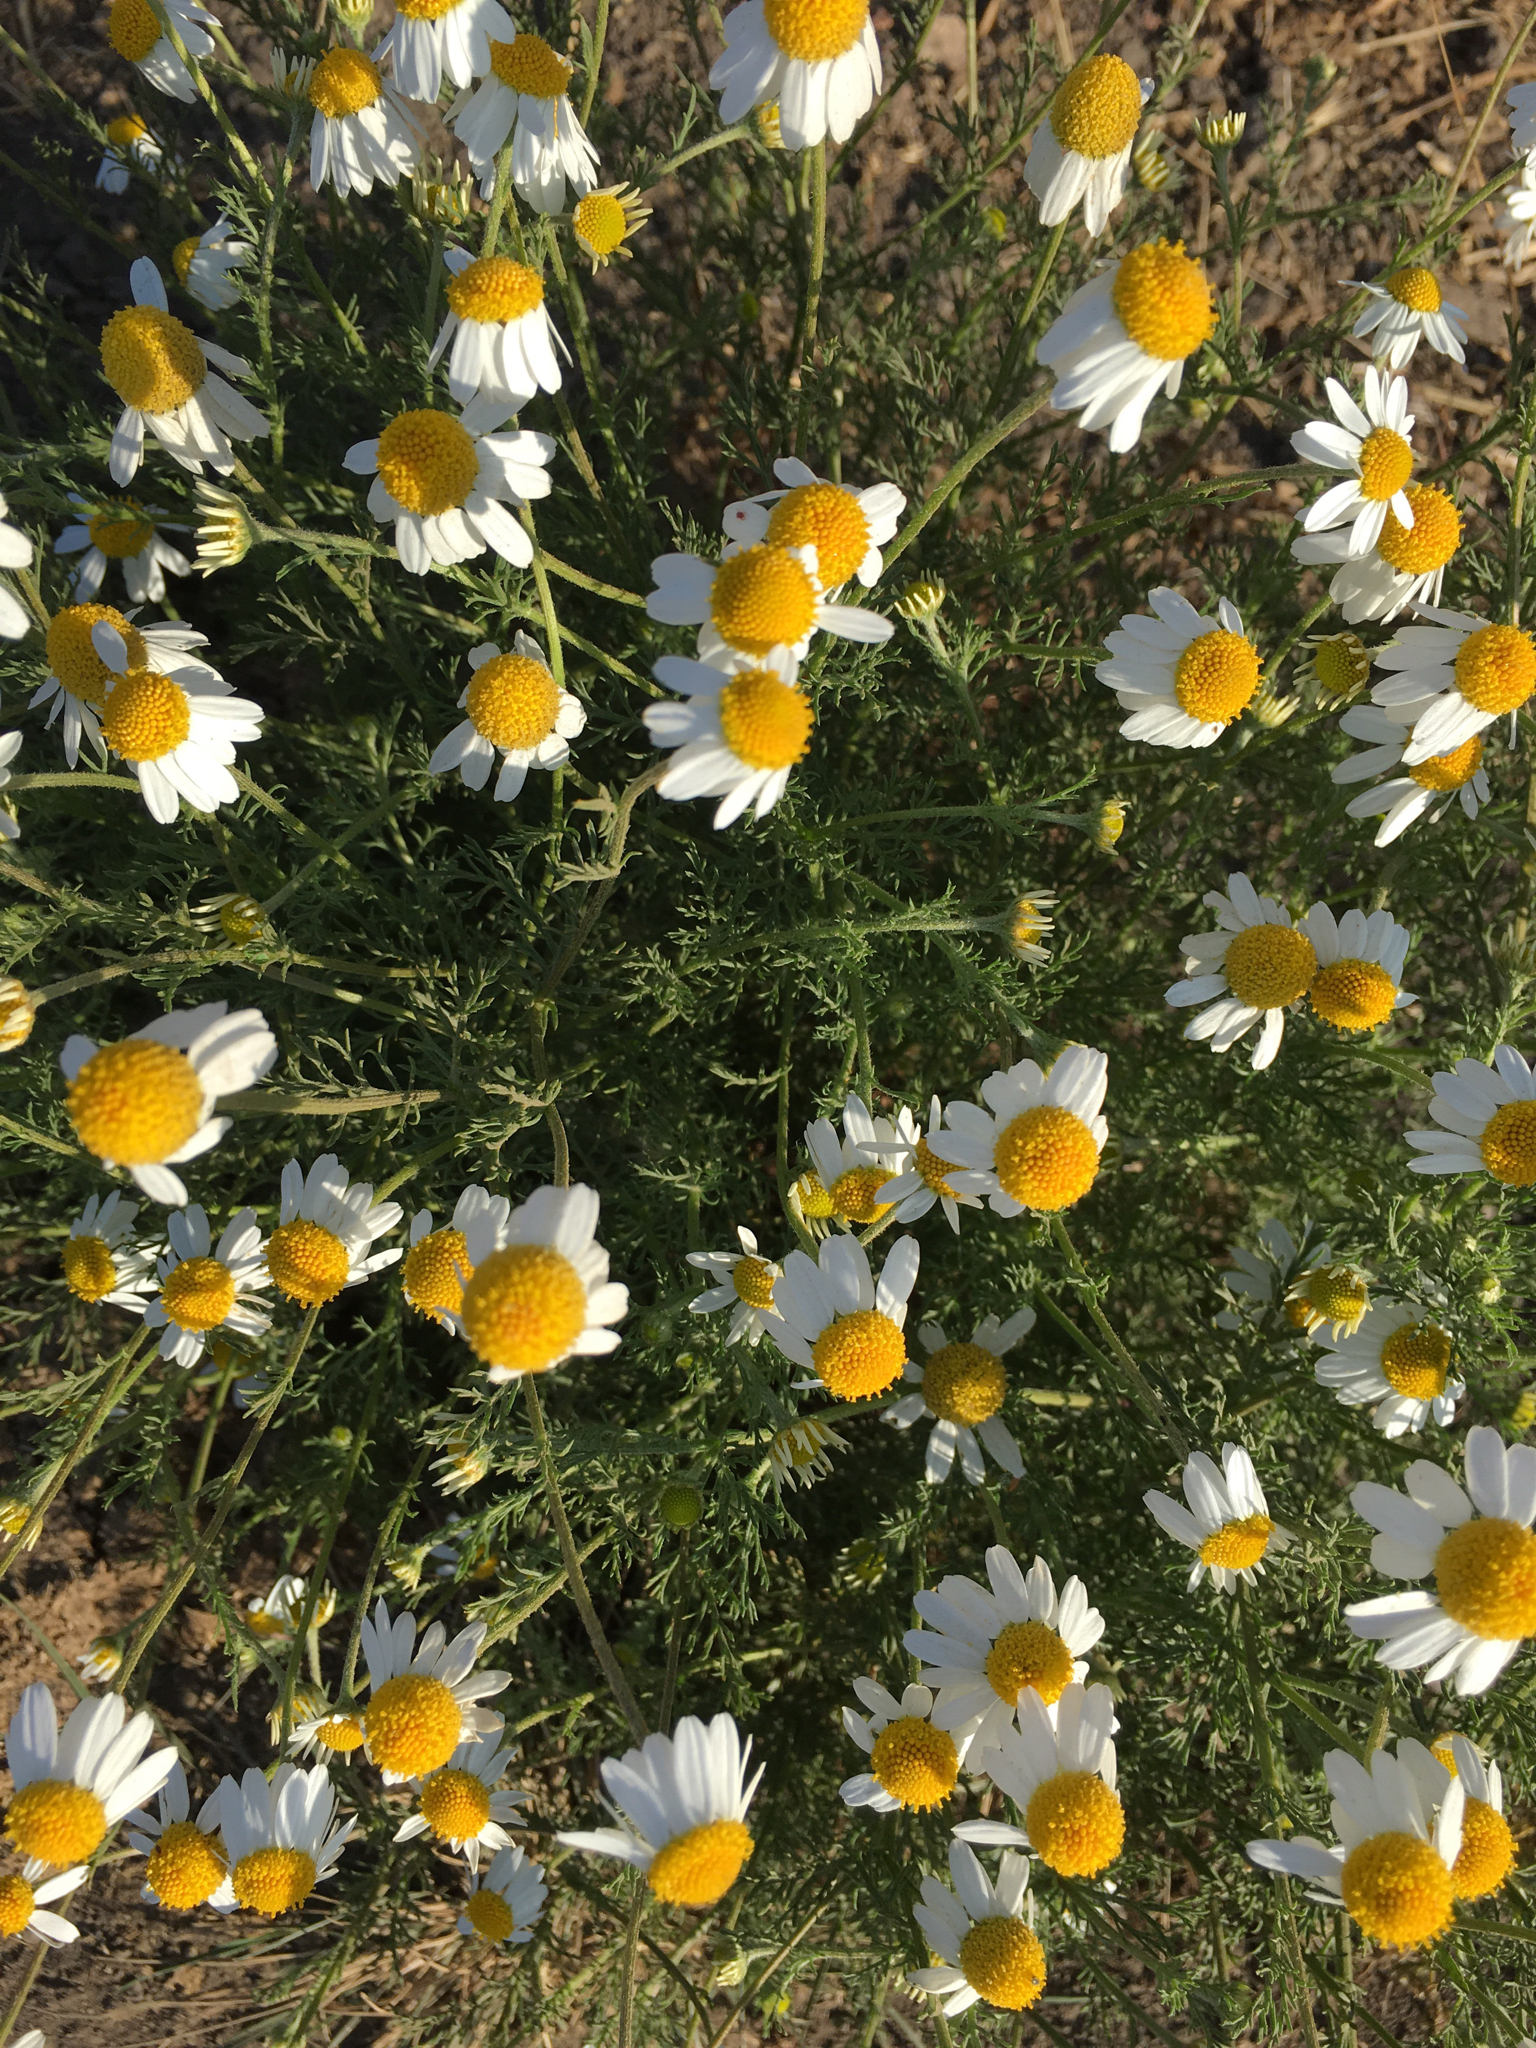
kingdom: Plantae
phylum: Tracheophyta
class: Magnoliopsida
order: Asterales
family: Asteraceae
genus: Anthemis
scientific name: Anthemis cotula
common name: Stinking chamomile
